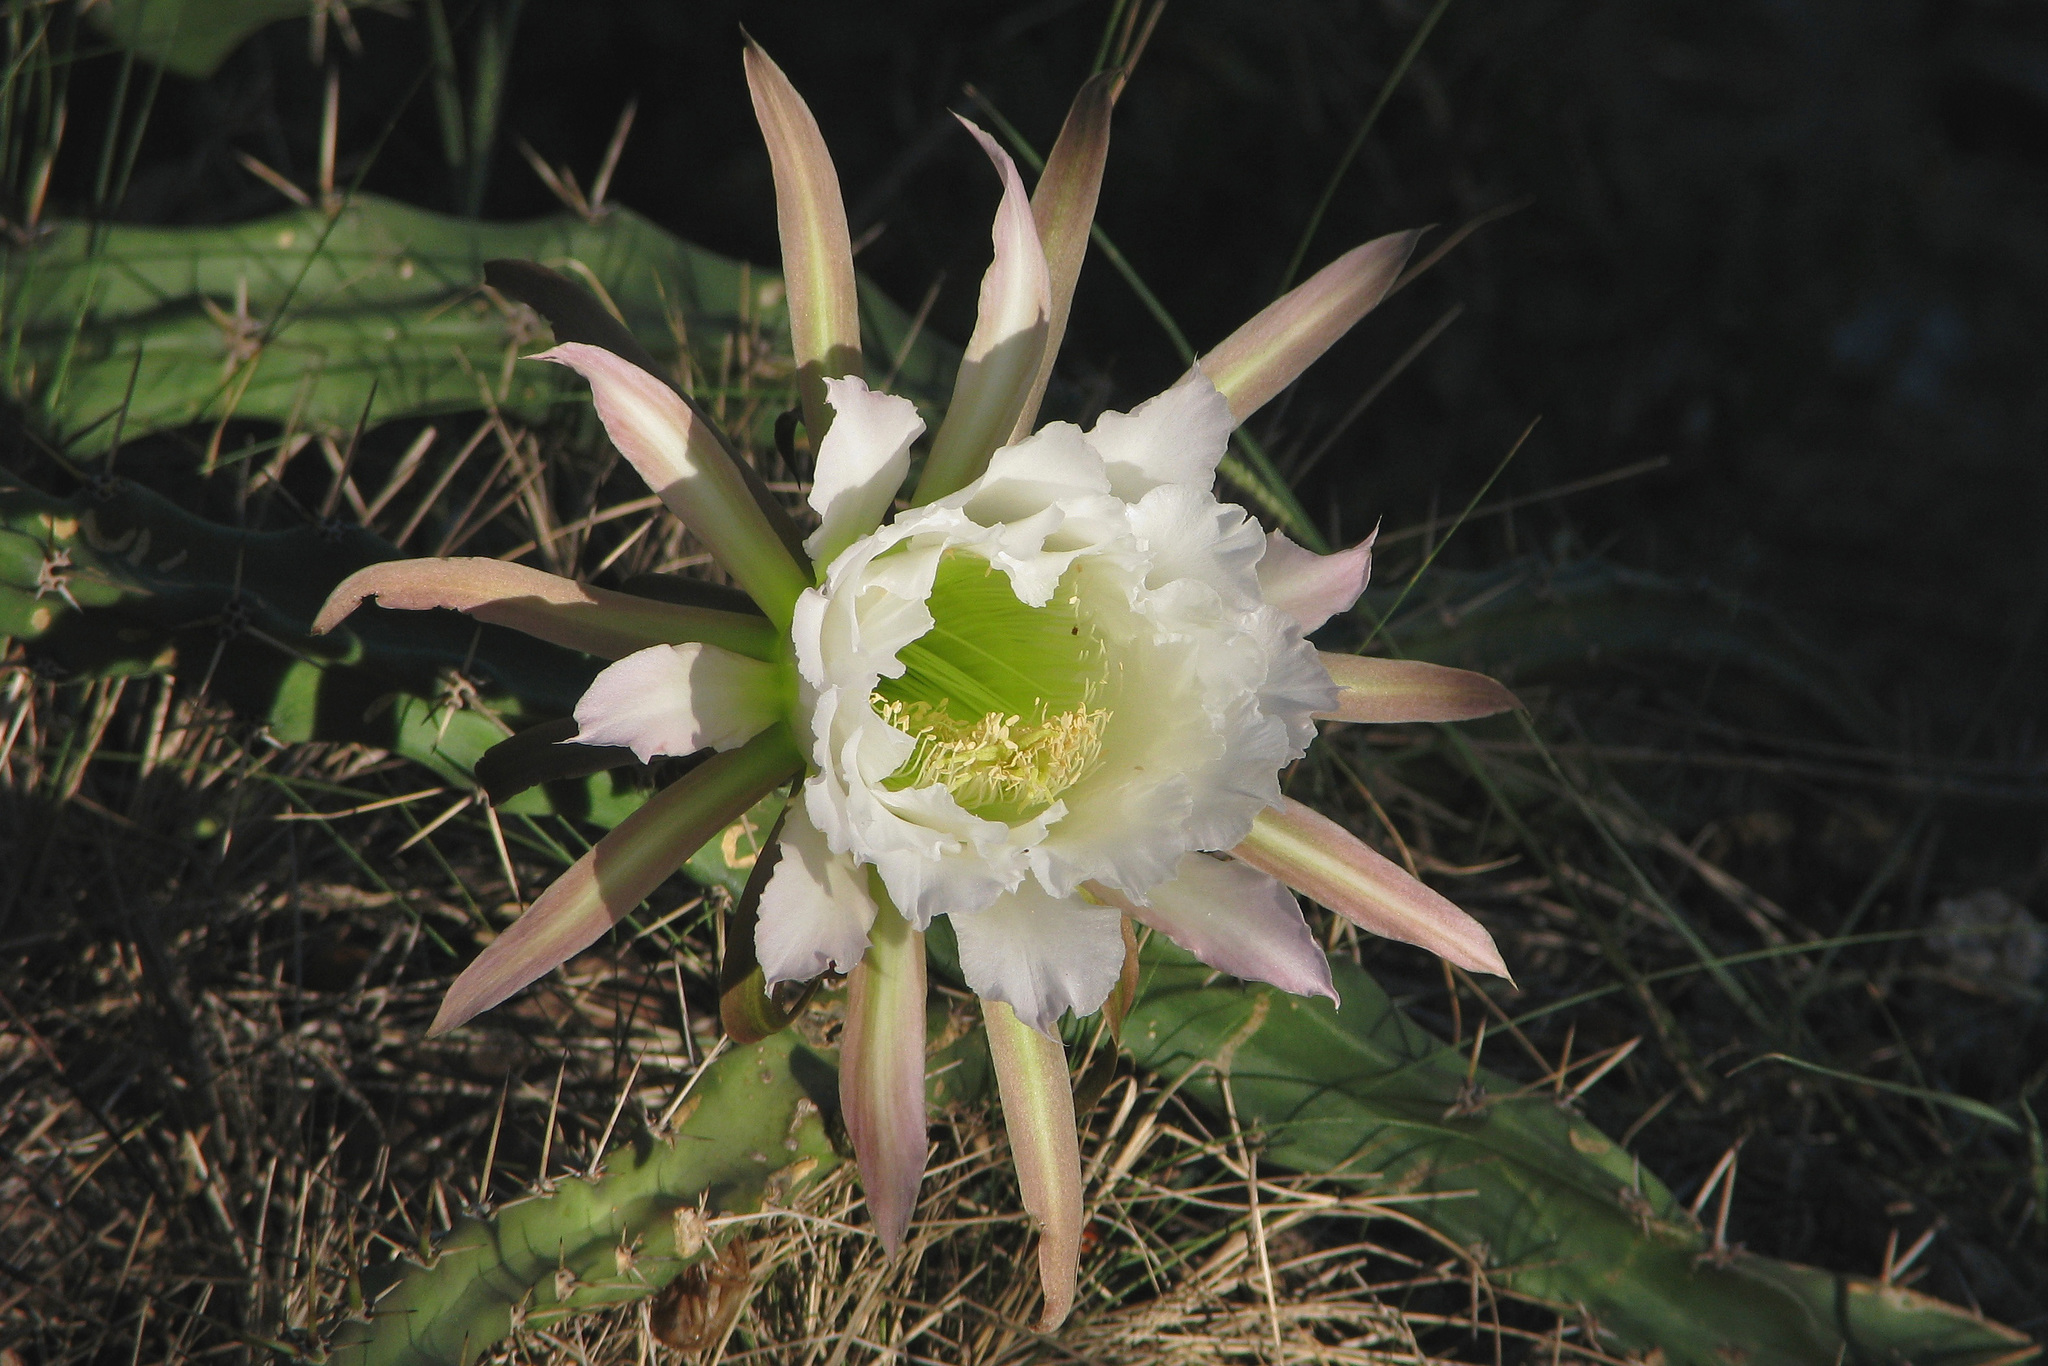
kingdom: Plantae
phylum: Tracheophyta
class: Magnoliopsida
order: Caryophyllales
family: Cactaceae
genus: Harrisia
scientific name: Harrisia pomanensis
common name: Midnight-lady
